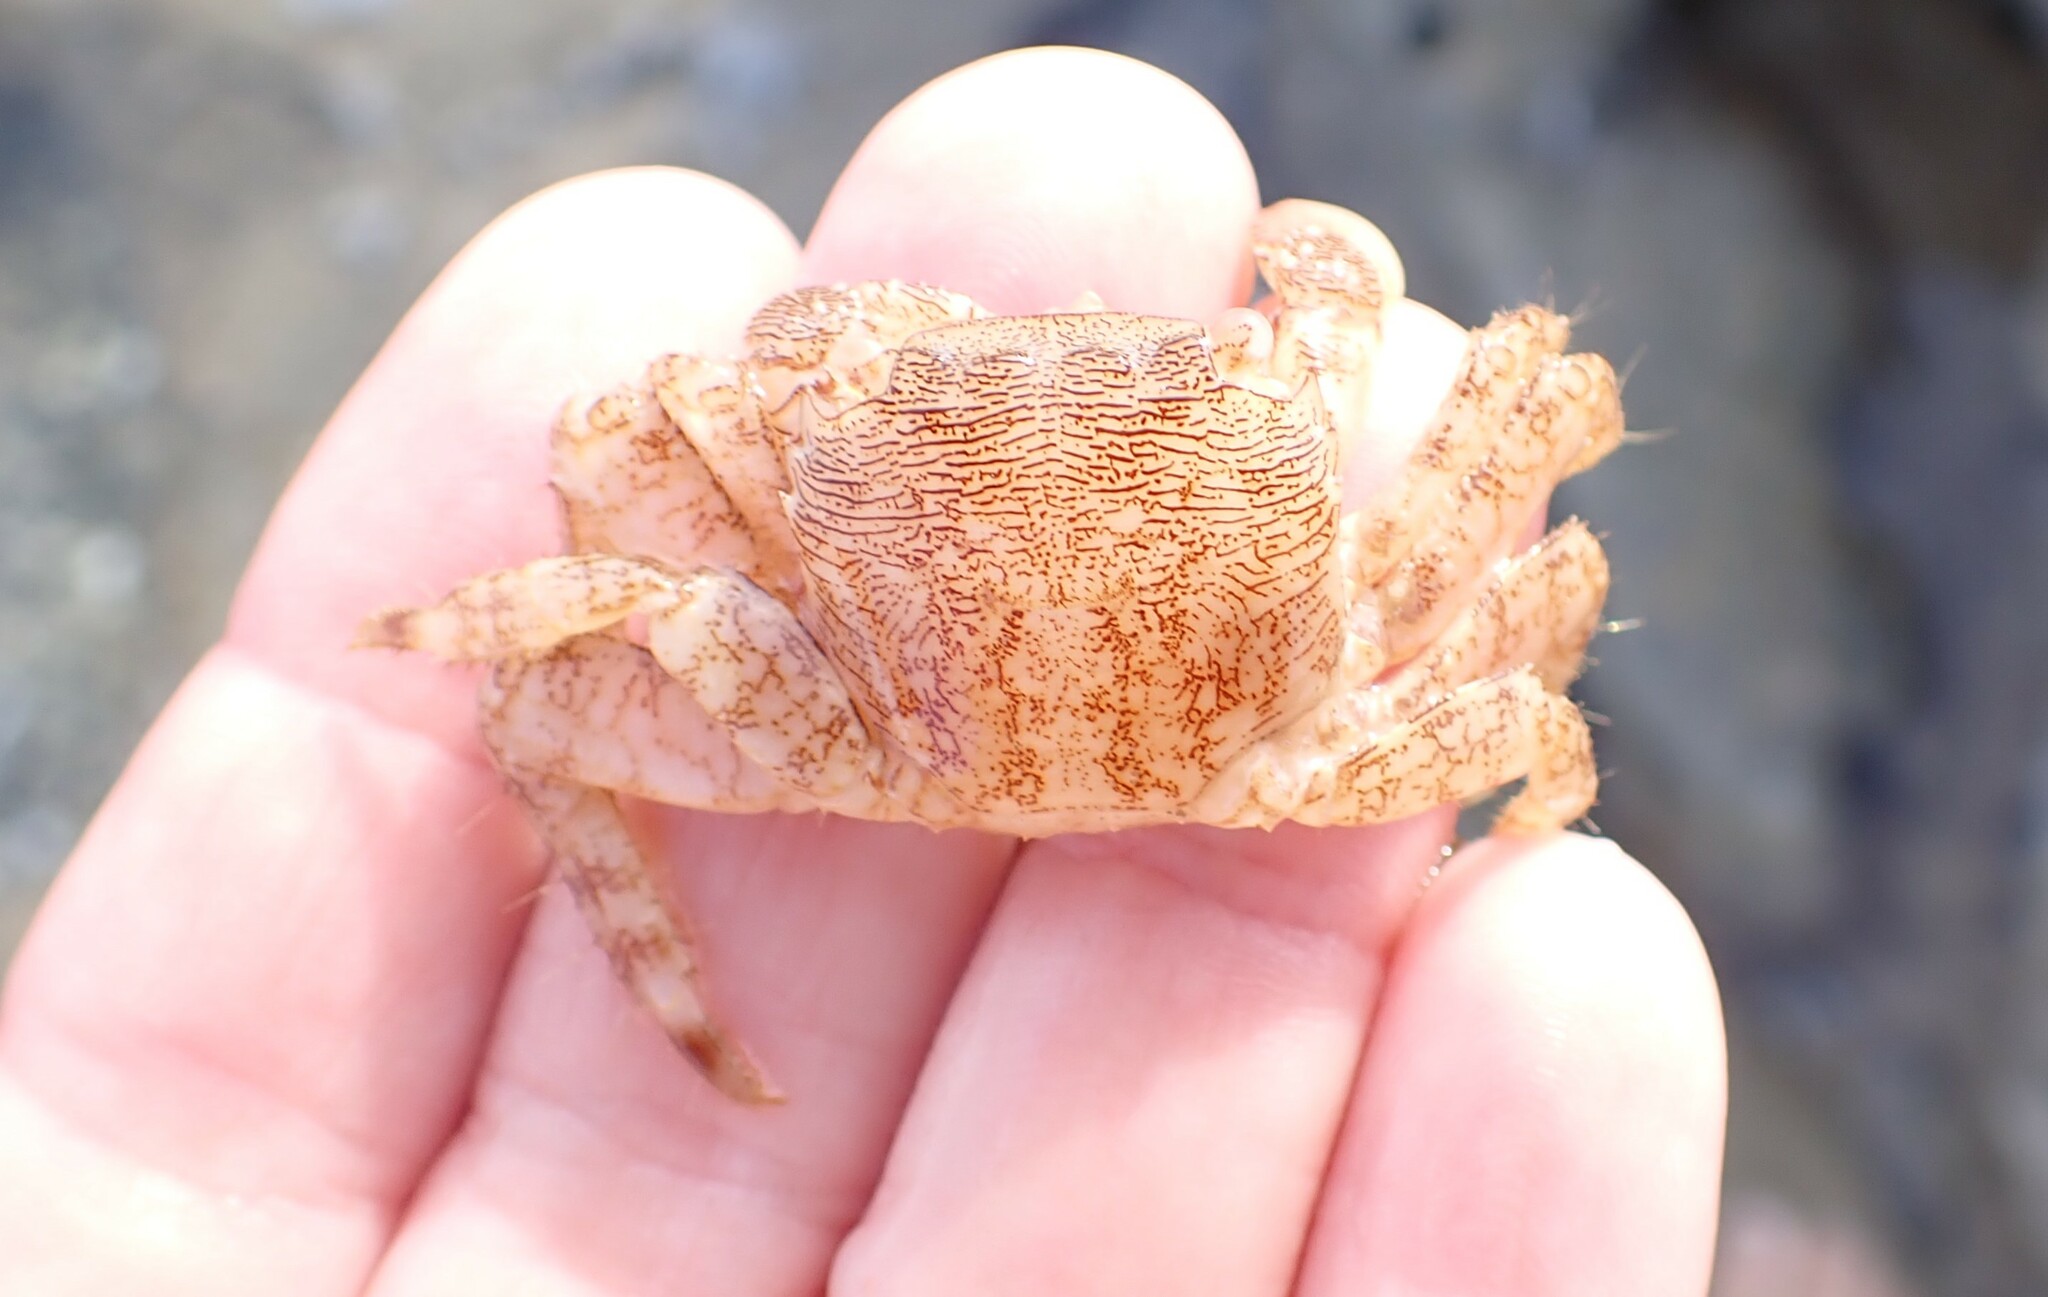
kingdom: Animalia
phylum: Arthropoda
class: Malacostraca
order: Decapoda
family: Grapsidae
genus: Pachygrapsus
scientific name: Pachygrapsus marmoratus
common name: Marbled rock crab
